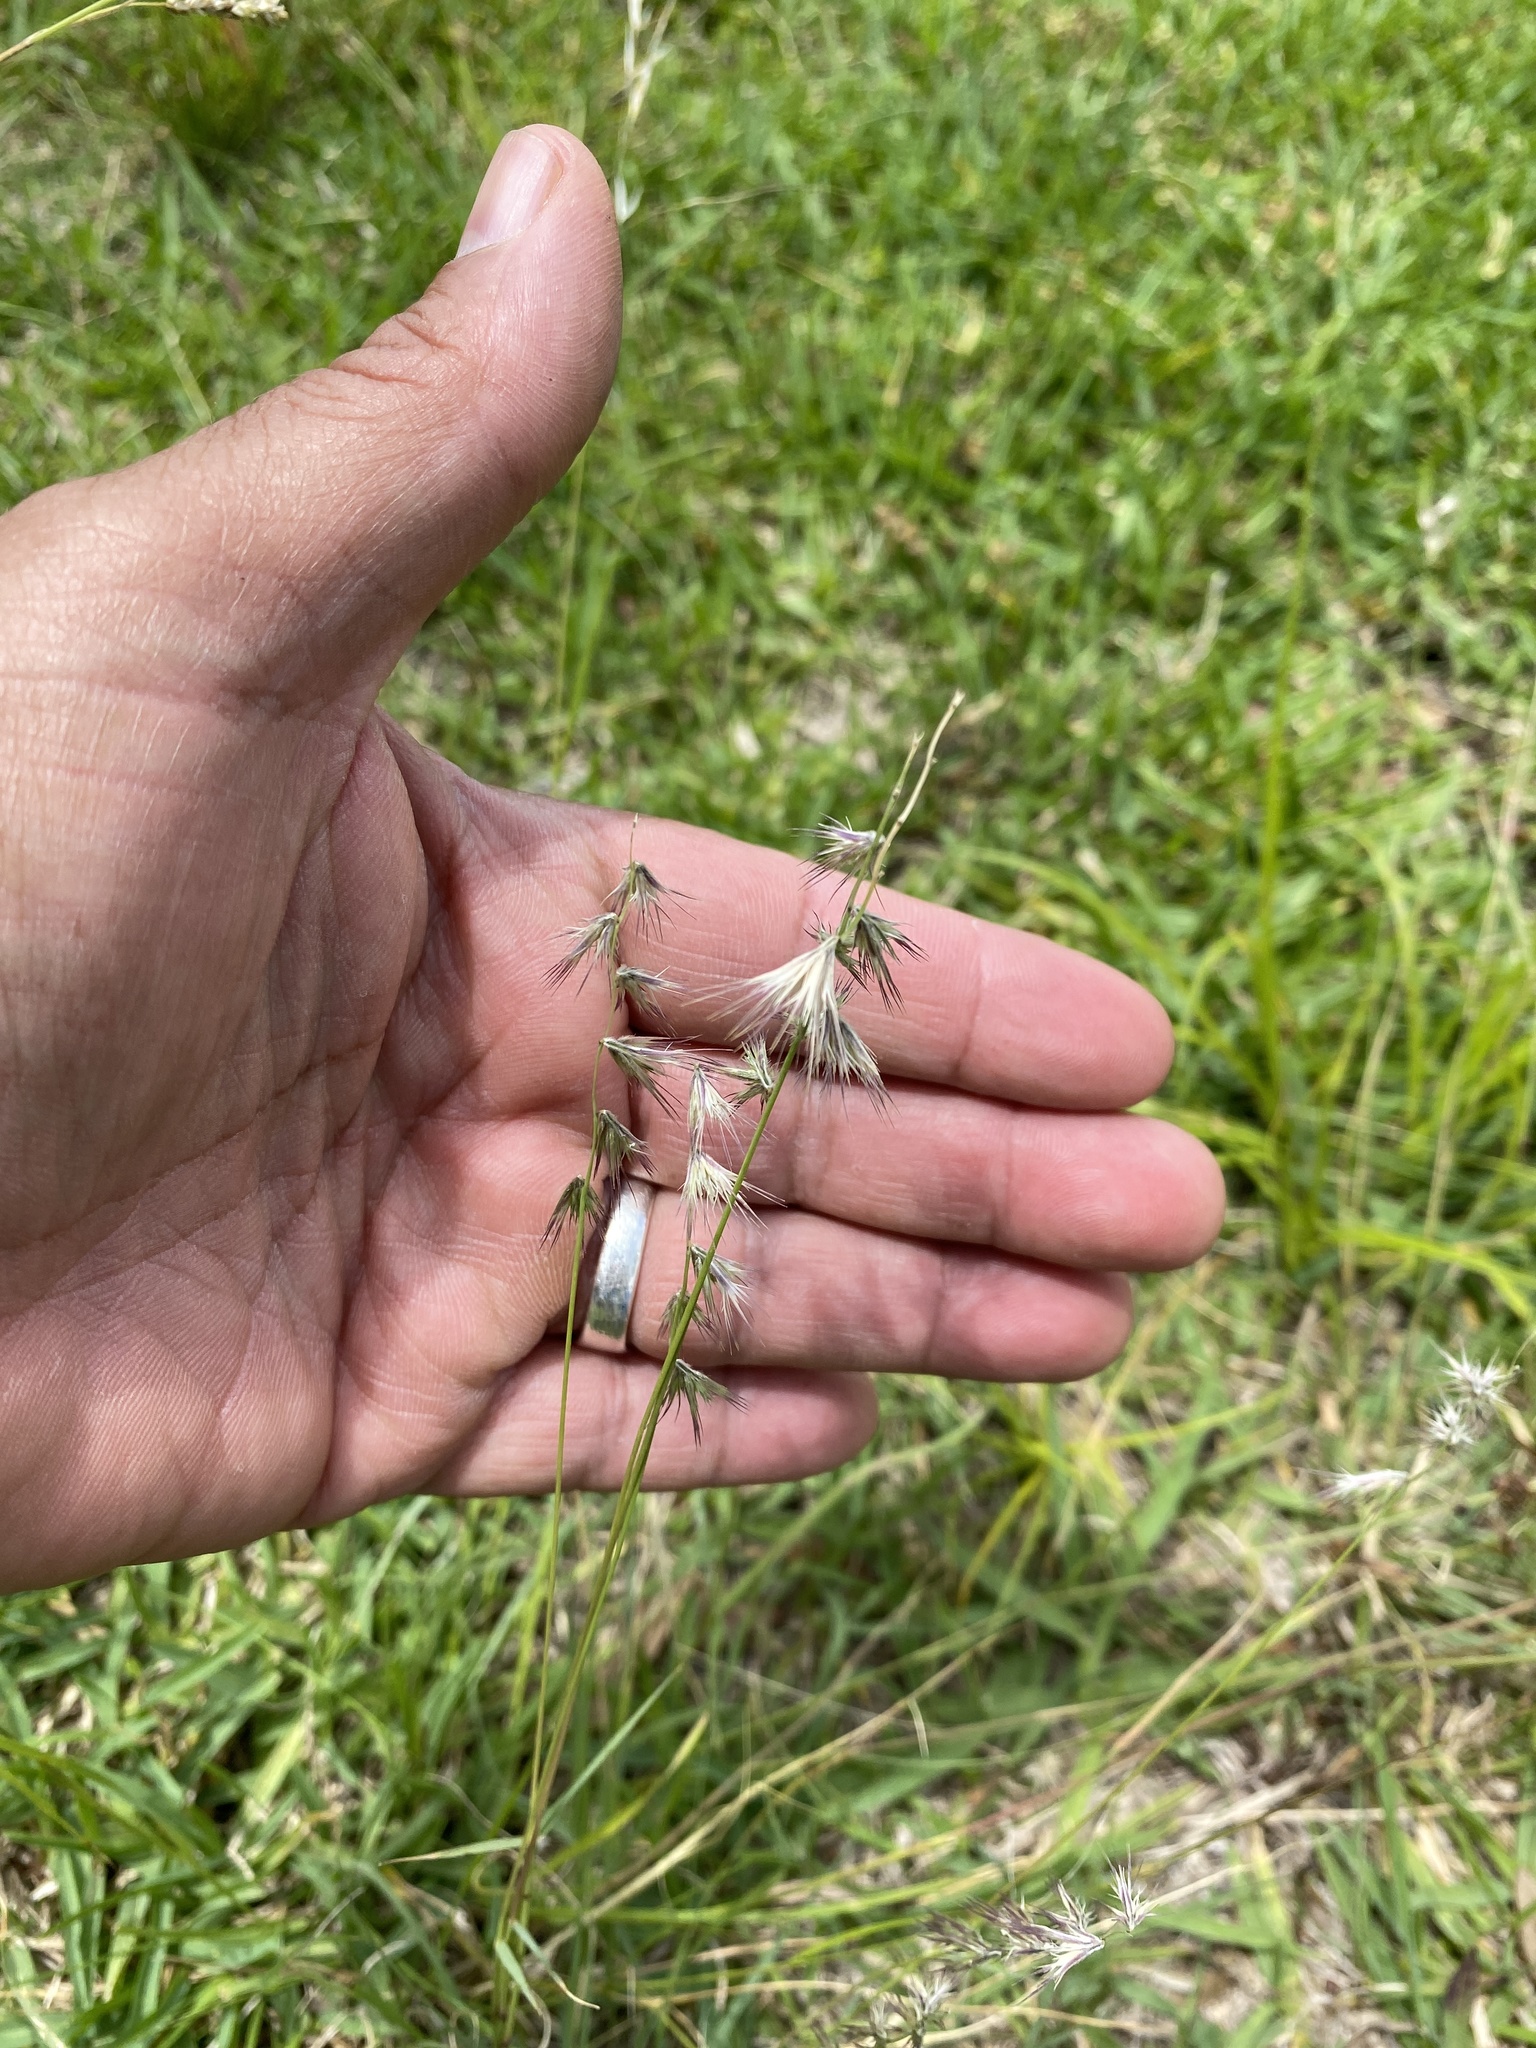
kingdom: Plantae
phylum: Tracheophyta
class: Liliopsida
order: Poales
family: Poaceae
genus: Bouteloua
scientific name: Bouteloua rigidiseta
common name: Texas grama
